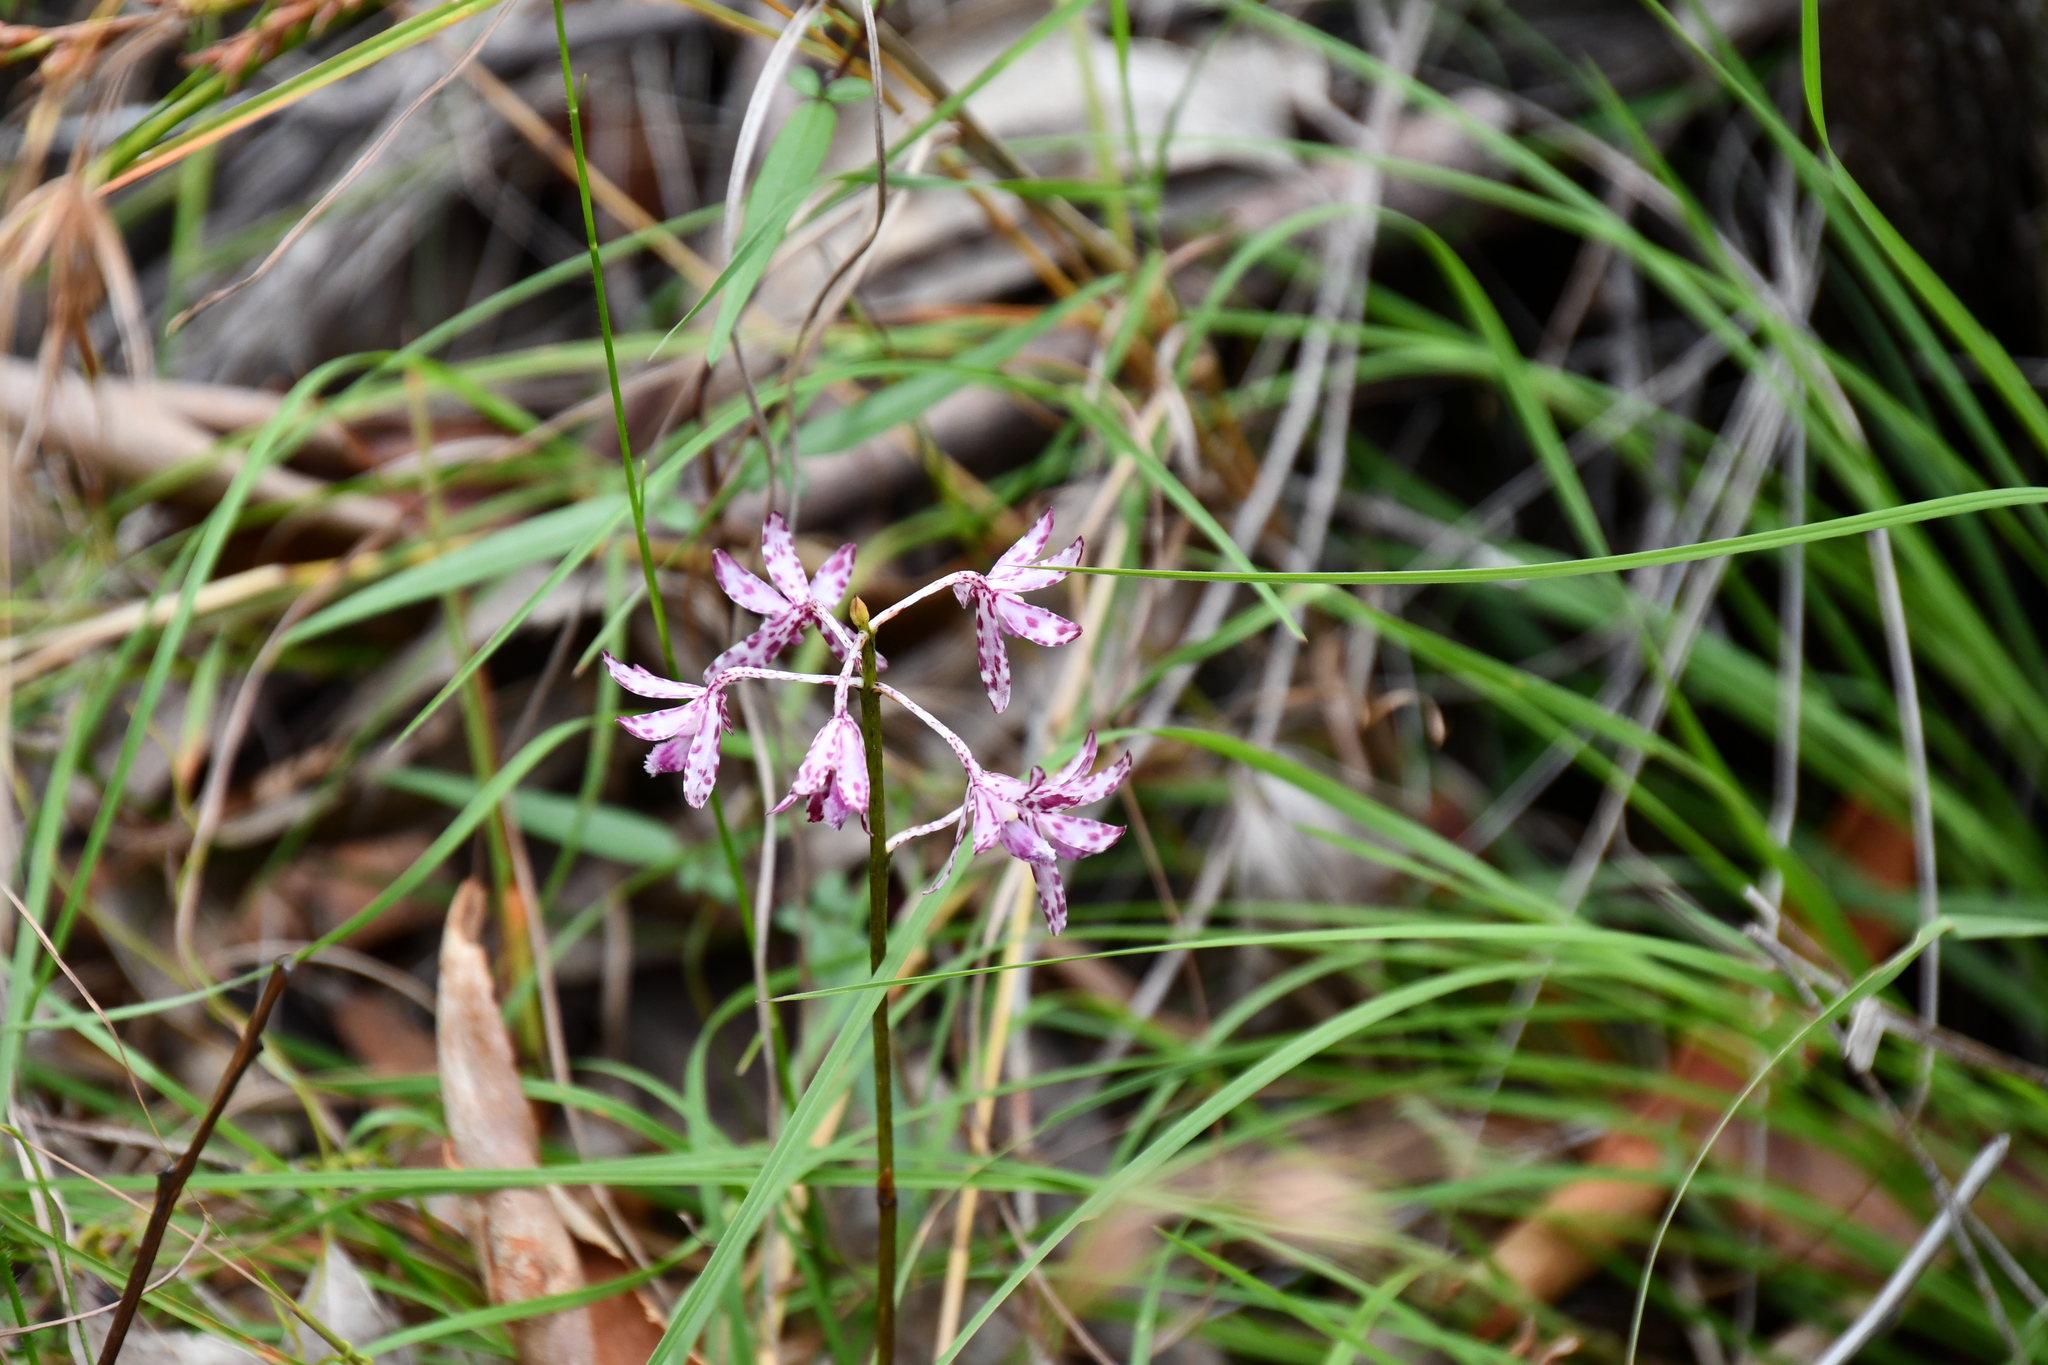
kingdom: Plantae
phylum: Tracheophyta
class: Liliopsida
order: Asparagales
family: Orchidaceae
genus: Dipodium
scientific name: Dipodium variegatum
